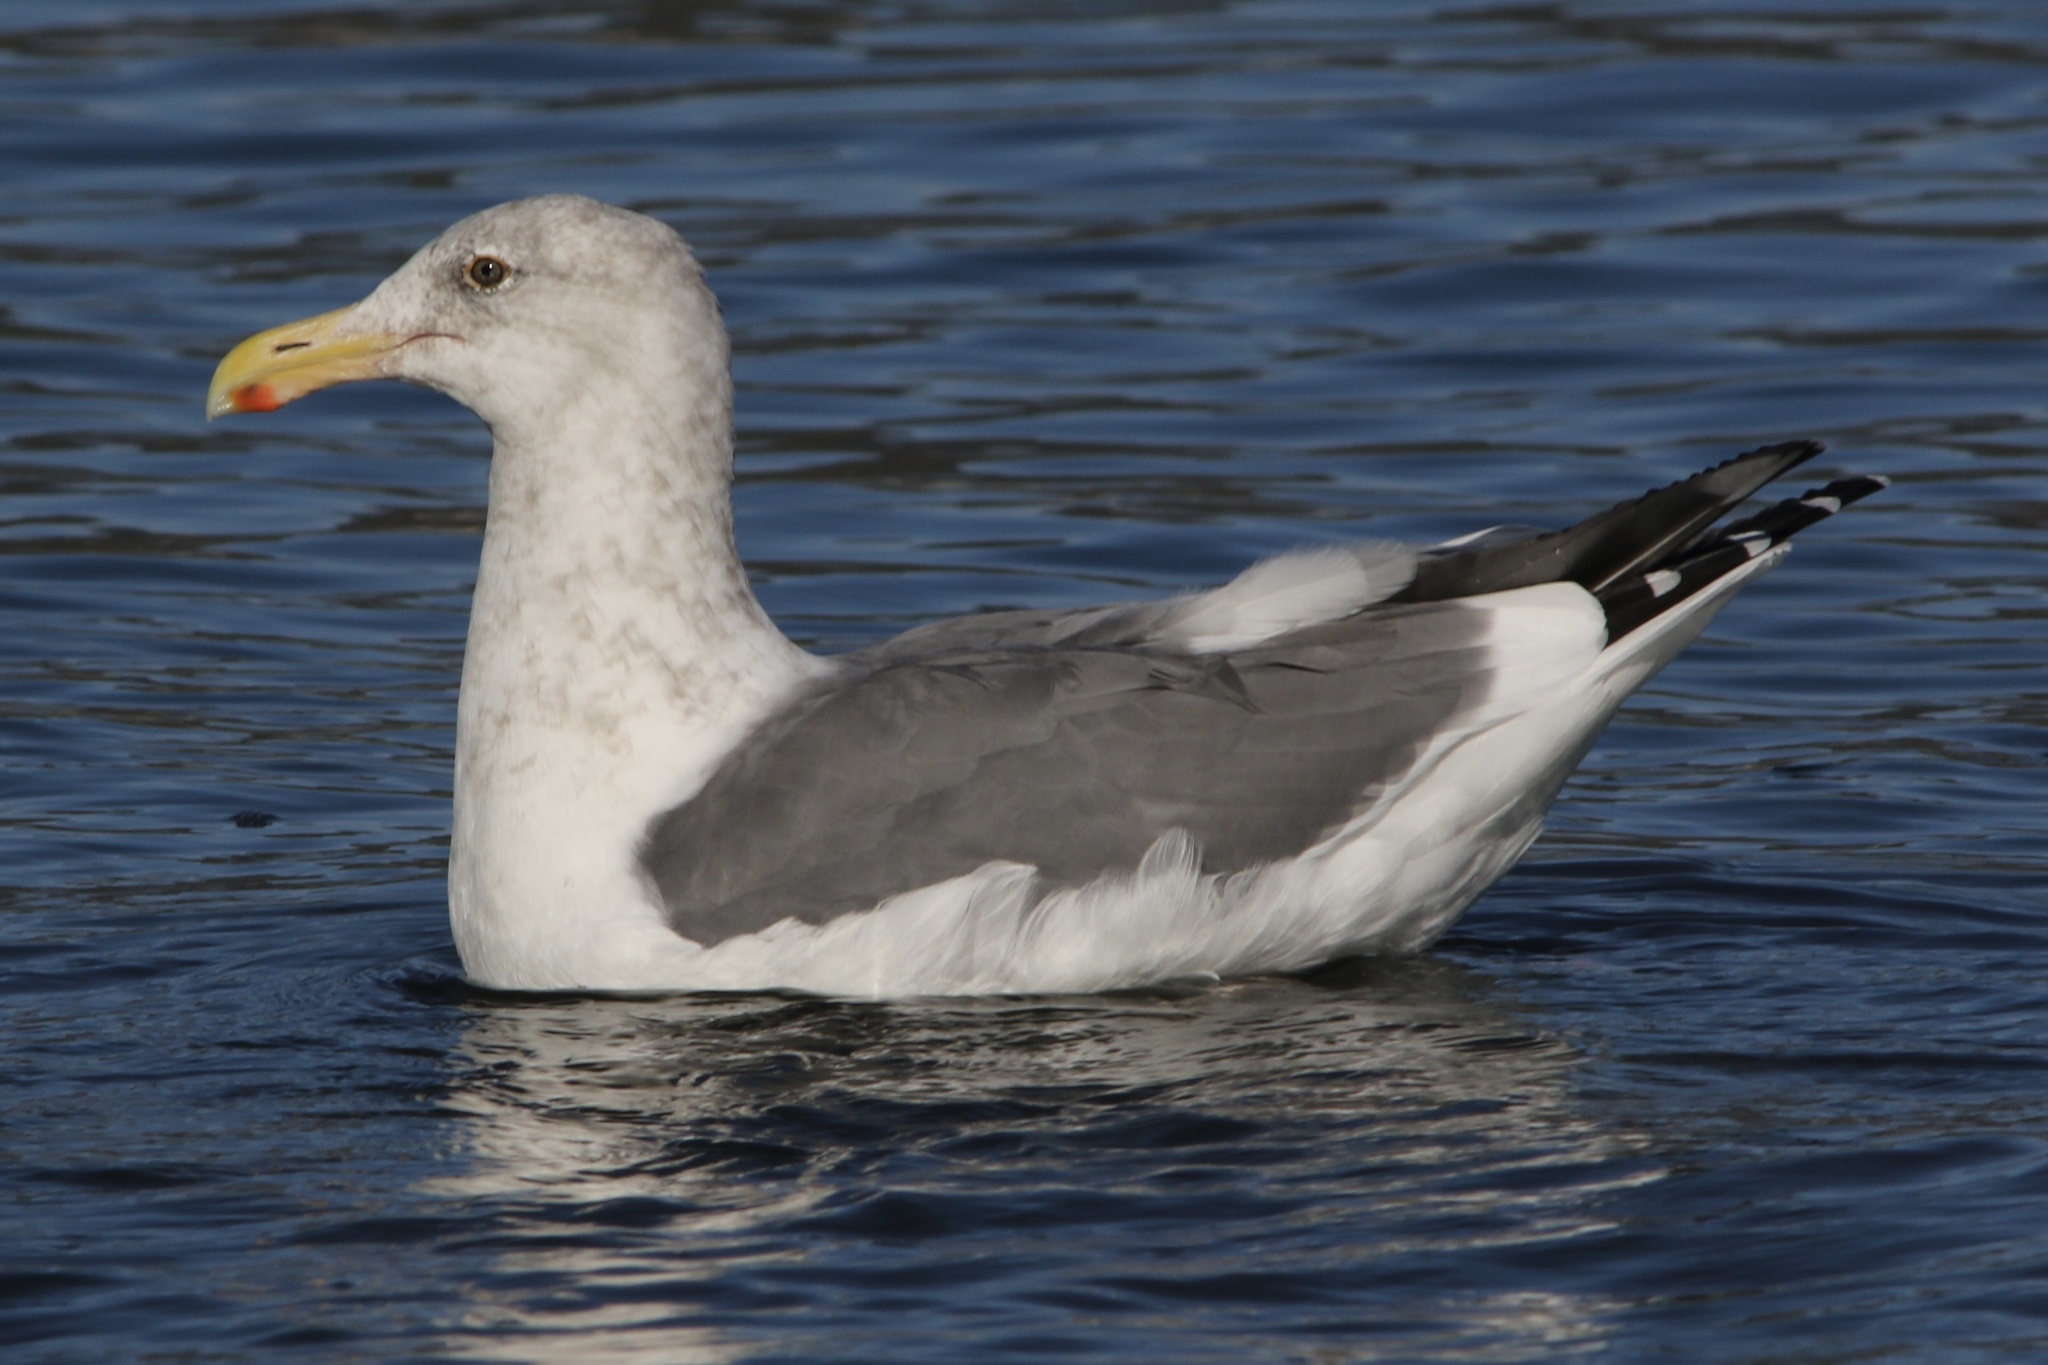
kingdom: Animalia
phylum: Chordata
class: Aves
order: Charadriiformes
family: Laridae
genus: Larus
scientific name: Larus occidentalis
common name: Western gull
